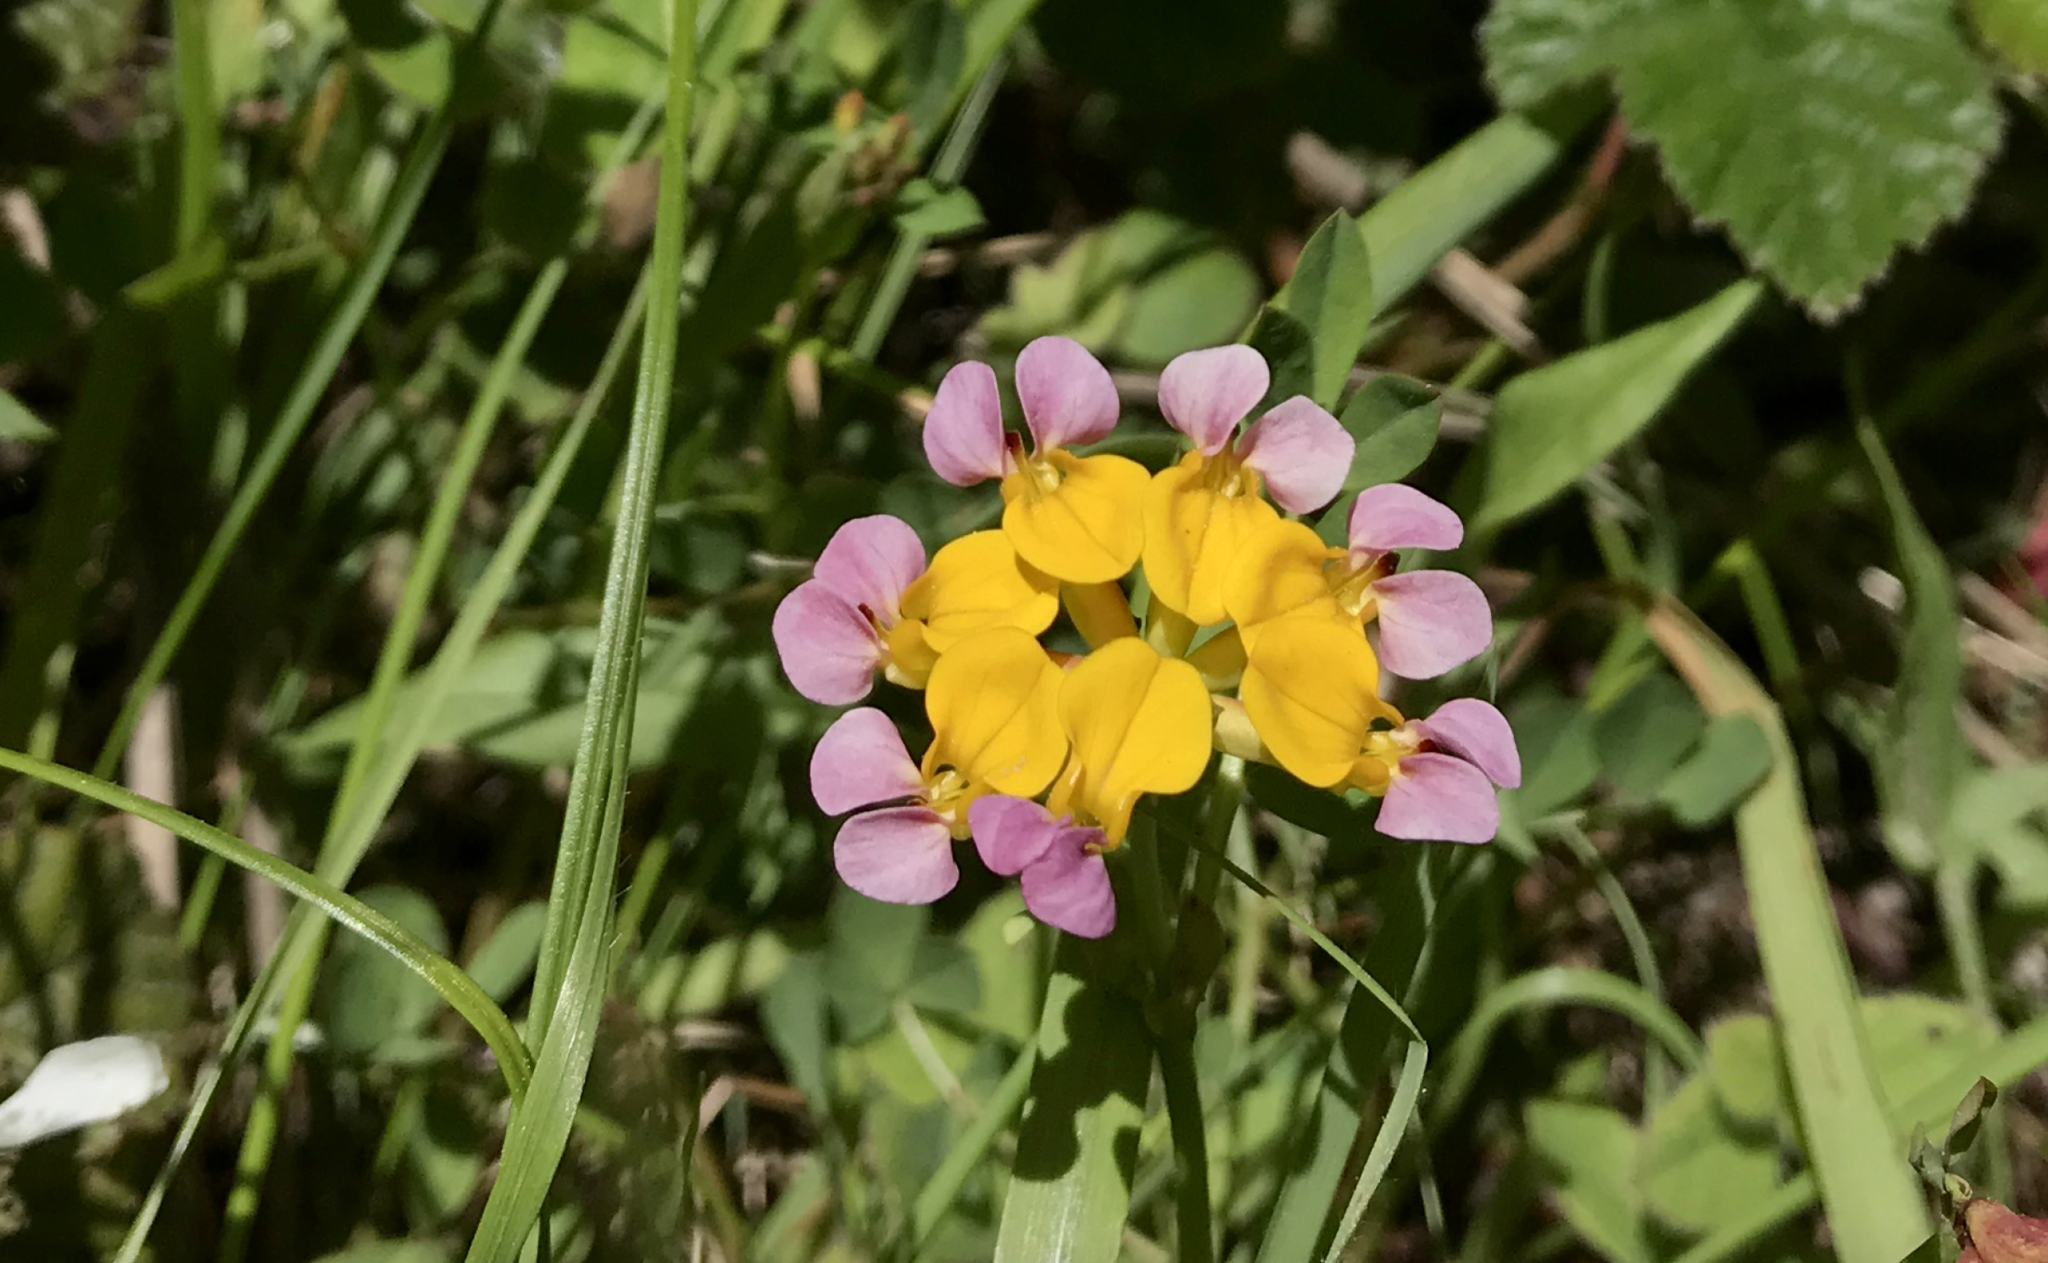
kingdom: Plantae
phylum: Tracheophyta
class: Magnoliopsida
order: Fabales
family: Fabaceae
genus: Hosackia
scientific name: Hosackia gracilis
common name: Seaside bird's-foot lotus
